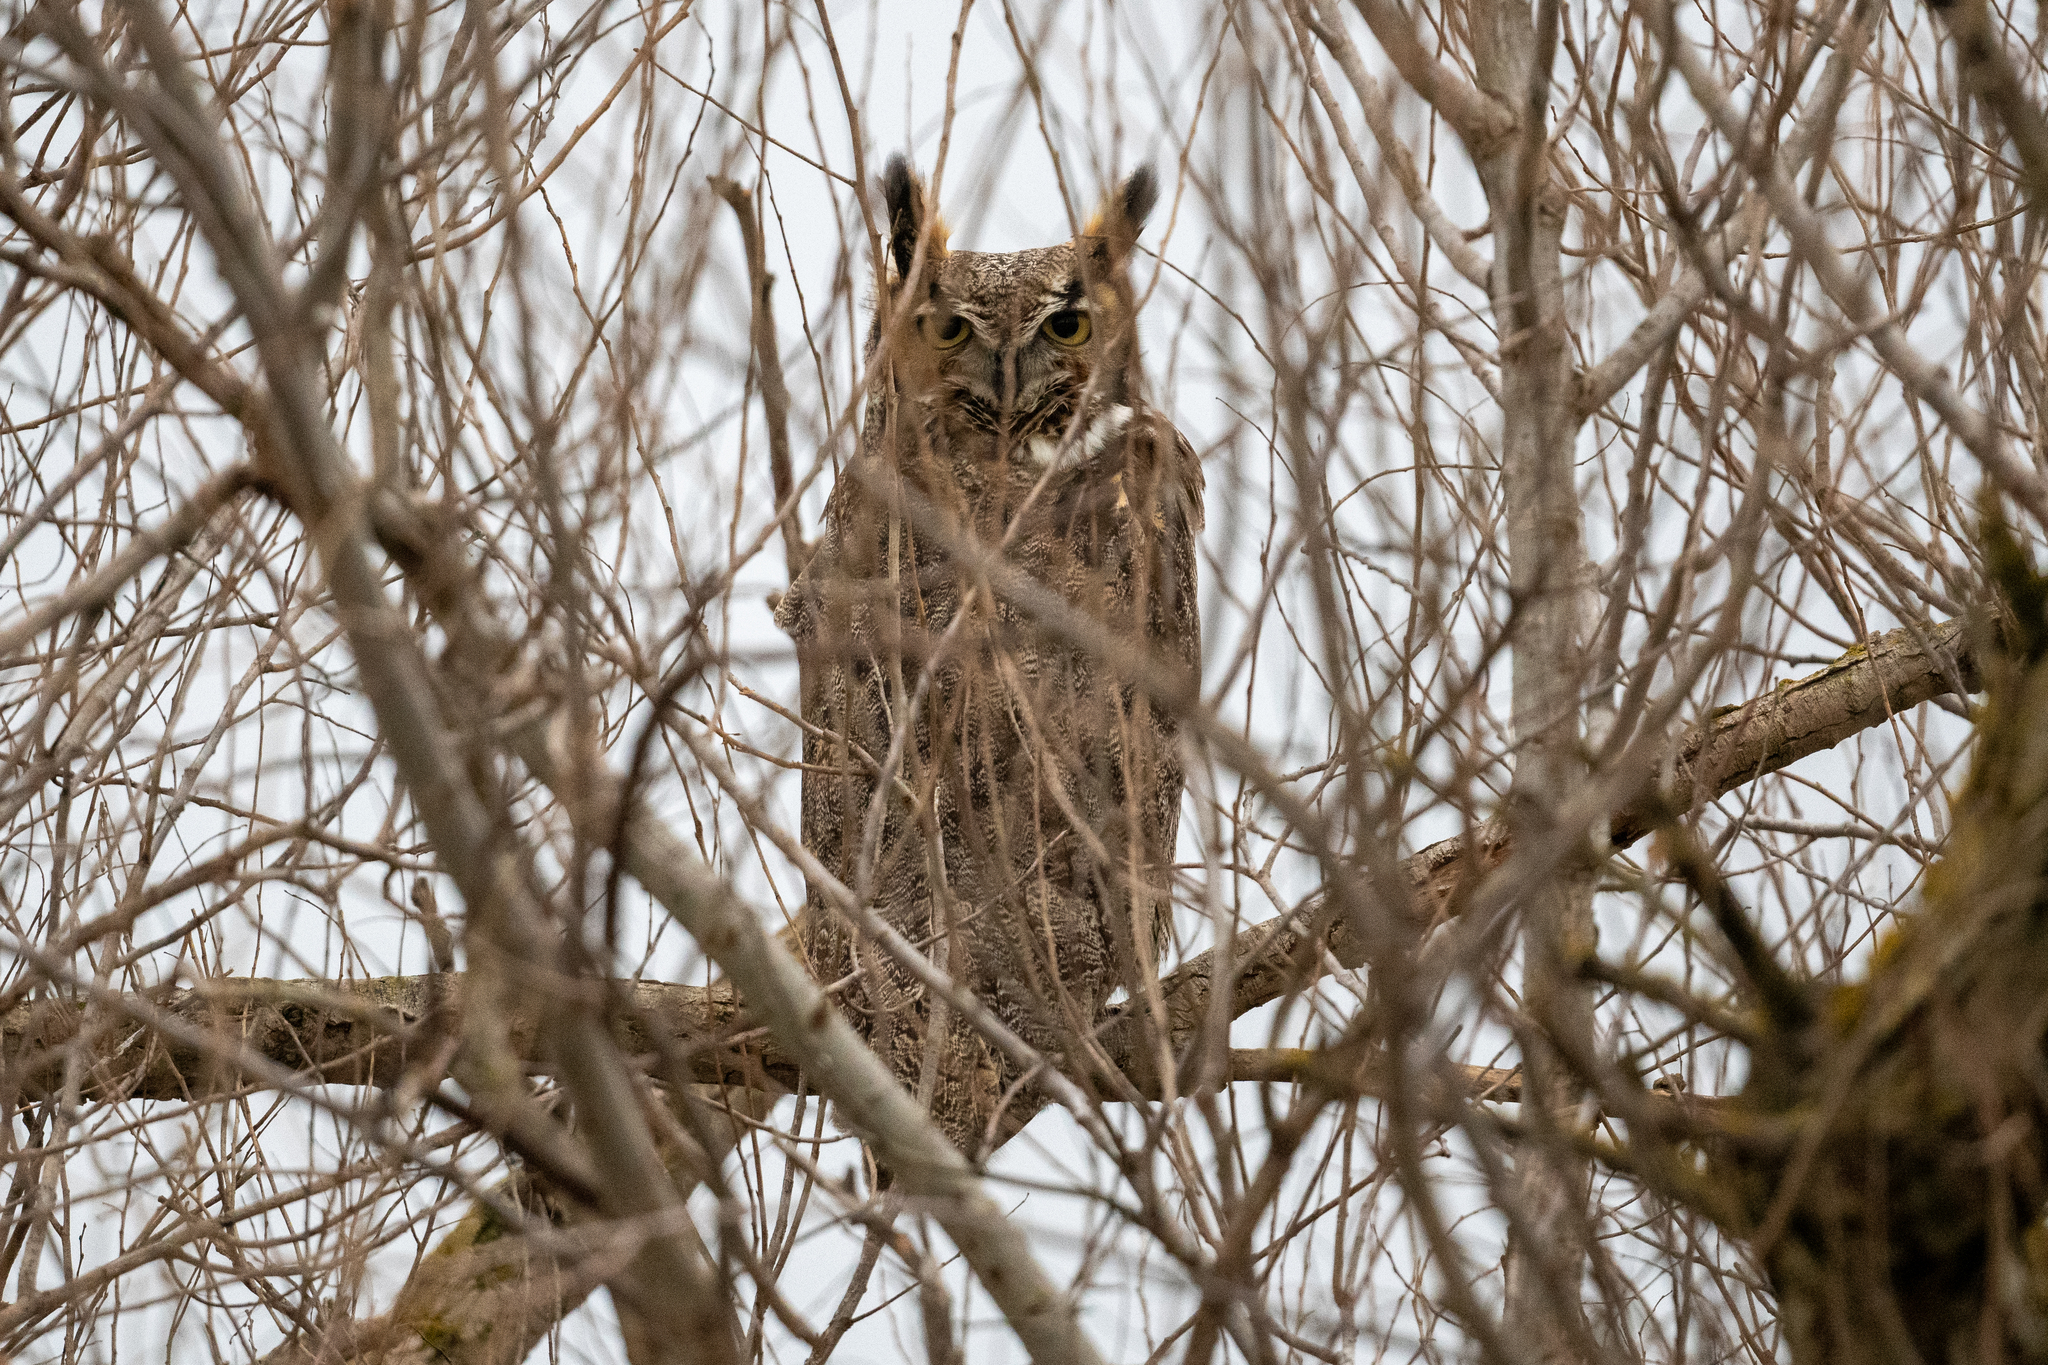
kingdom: Animalia
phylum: Chordata
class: Aves
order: Strigiformes
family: Strigidae
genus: Bubo
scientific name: Bubo virginianus
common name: Great horned owl
